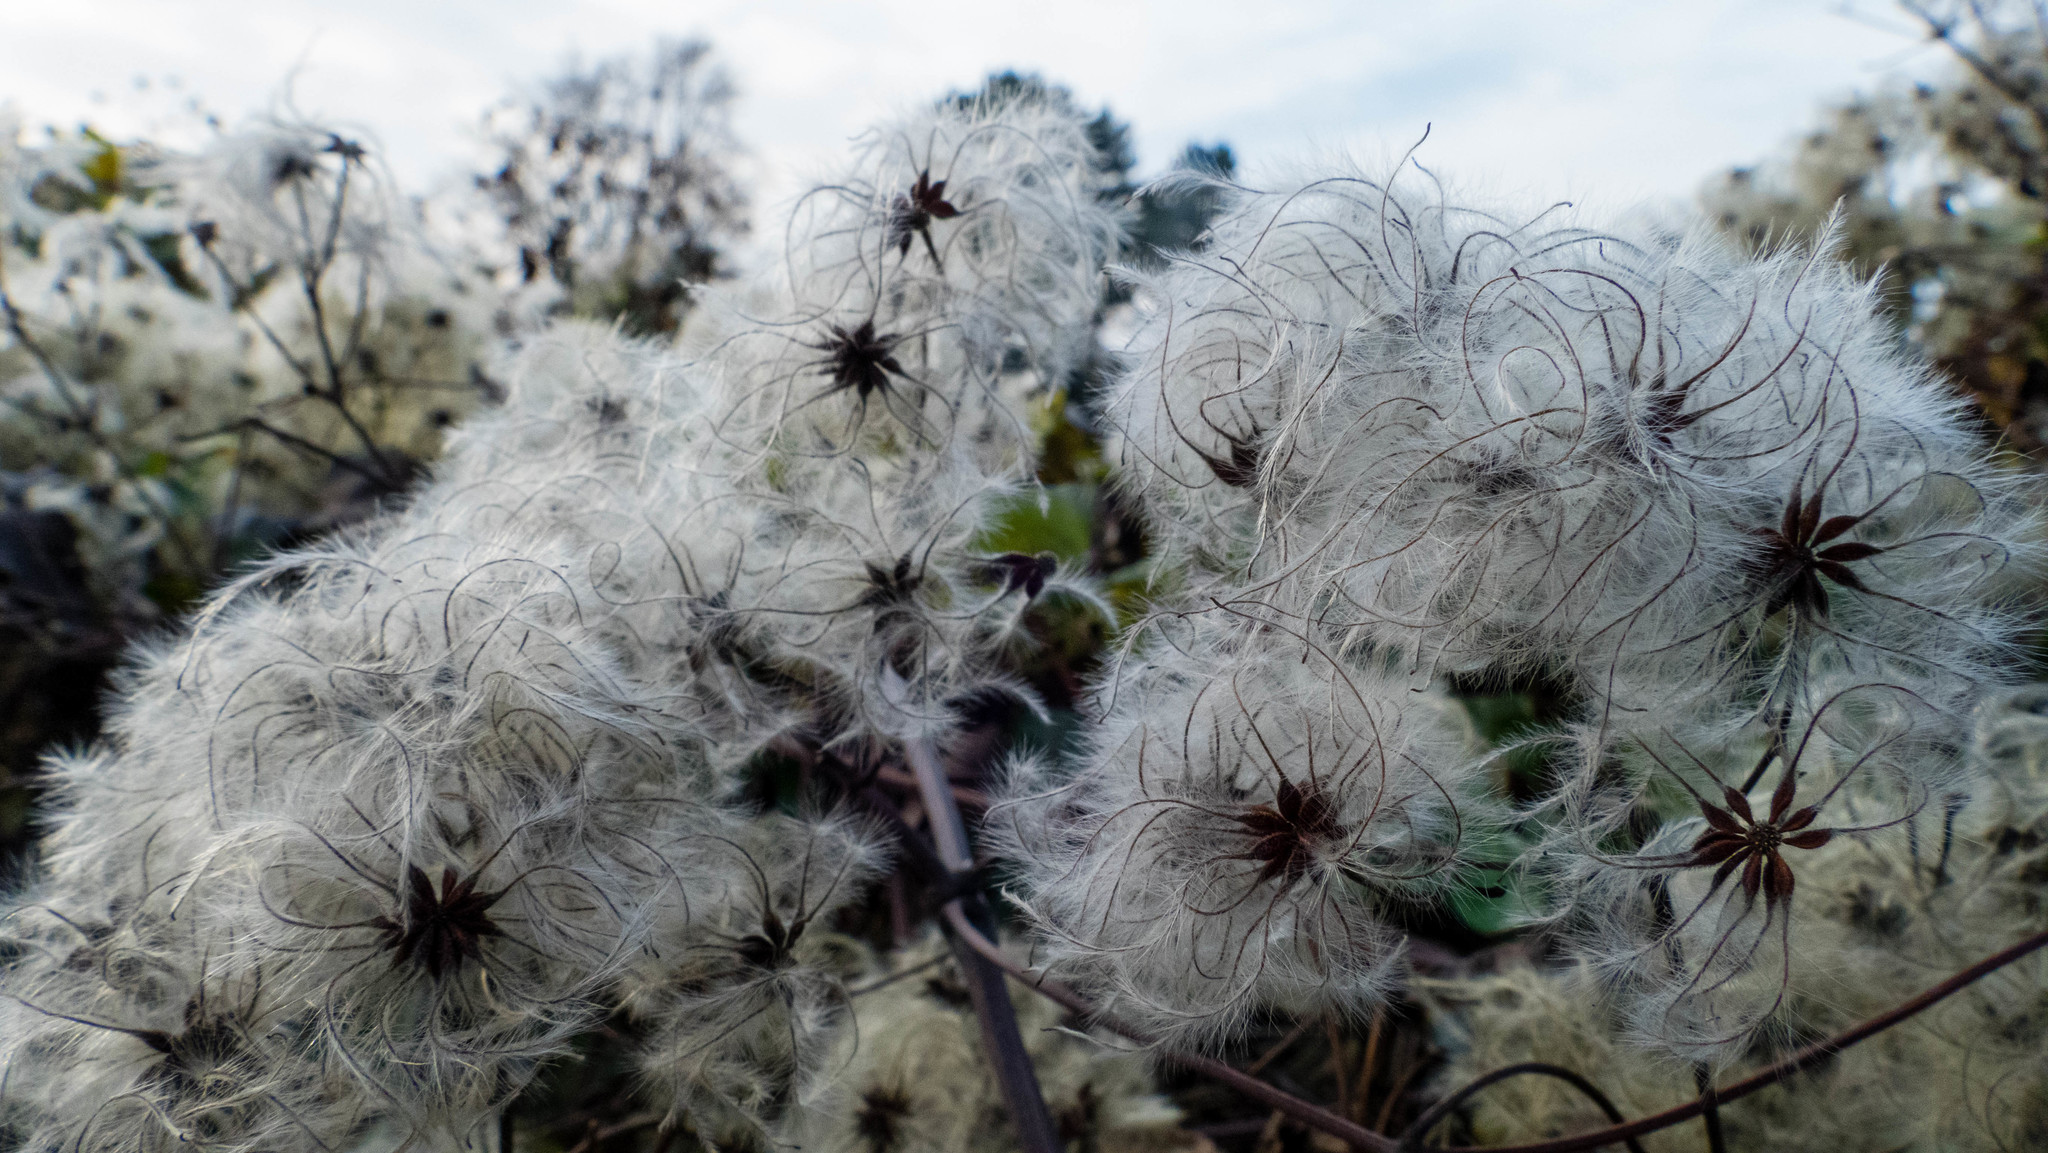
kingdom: Plantae
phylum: Tracheophyta
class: Magnoliopsida
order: Ranunculales
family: Ranunculaceae
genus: Clematis
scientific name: Clematis vitalba
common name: Evergreen clematis
